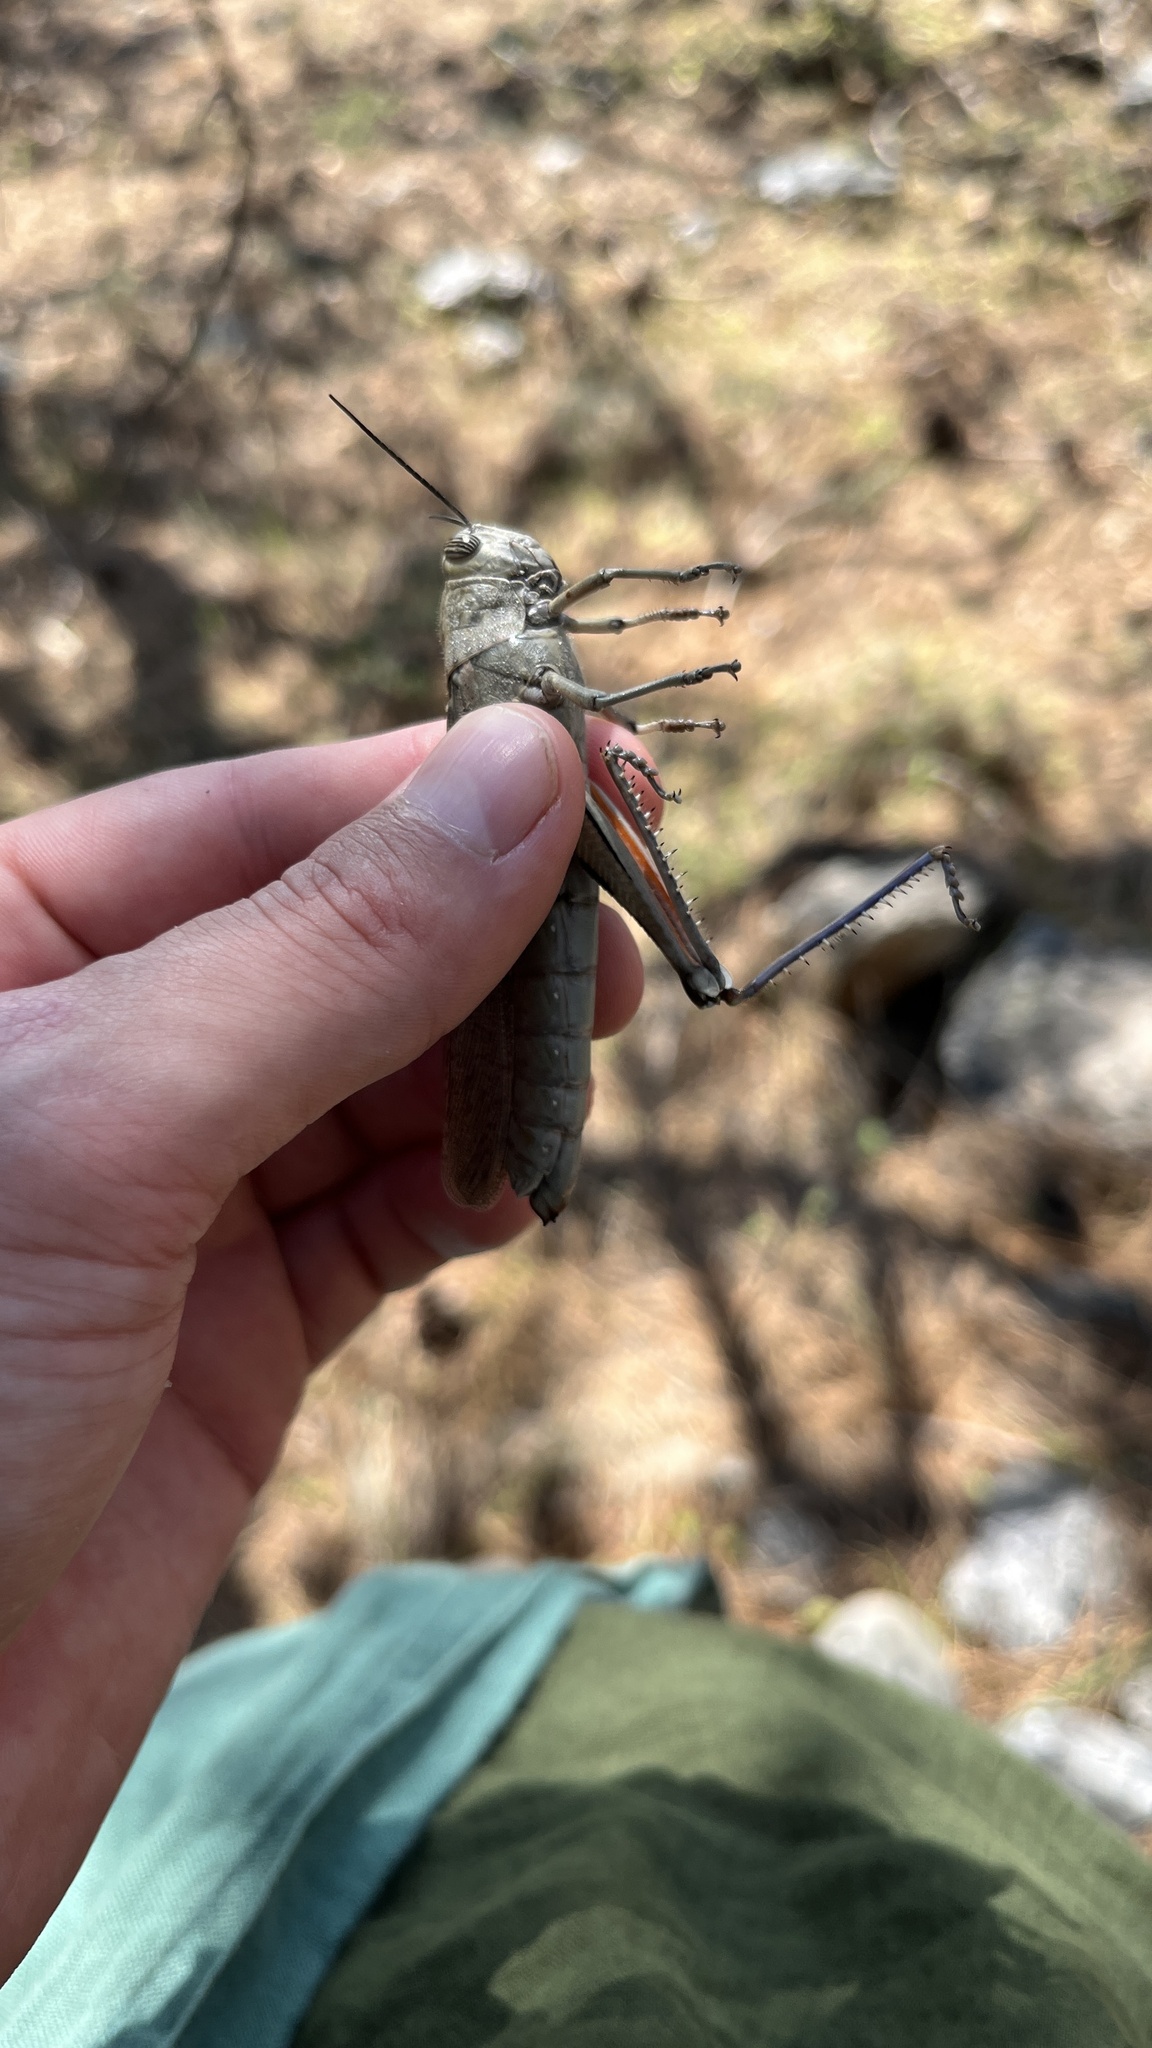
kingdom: Animalia
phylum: Arthropoda
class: Insecta
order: Orthoptera
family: Acrididae
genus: Anacridium
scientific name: Anacridium aegyptium
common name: Egyptian grasshopper
